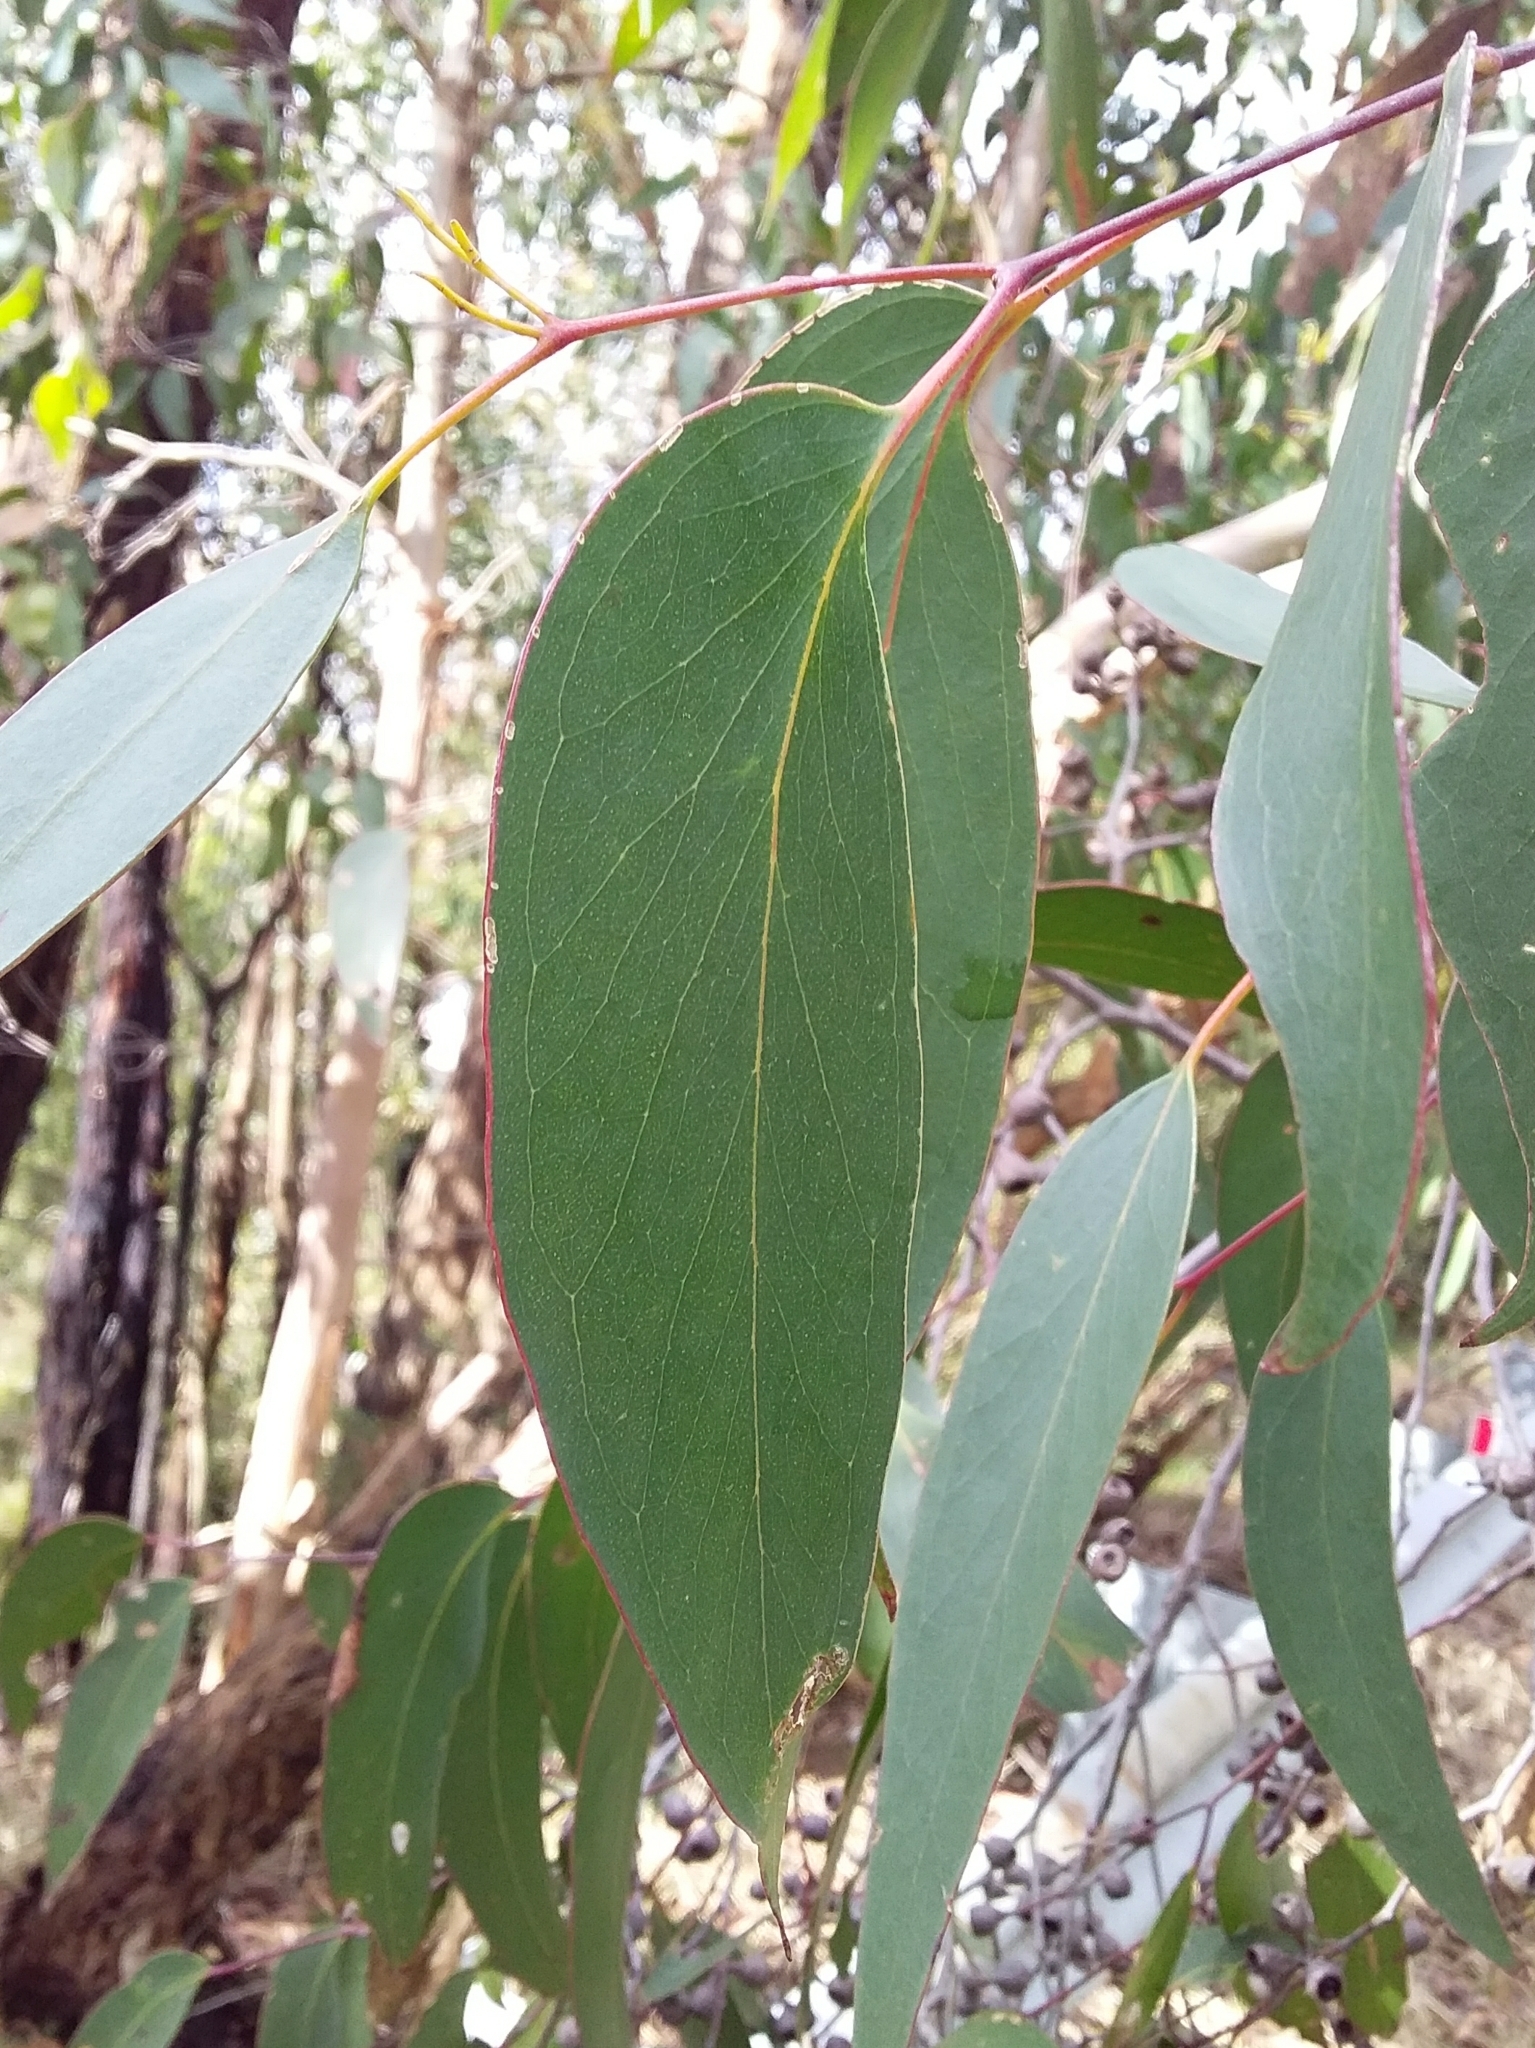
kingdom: Plantae
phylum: Tracheophyta
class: Magnoliopsida
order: Myrtales
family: Myrtaceae
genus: Eucalyptus
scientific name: Eucalyptus obliqua
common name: Messmate stringybark
